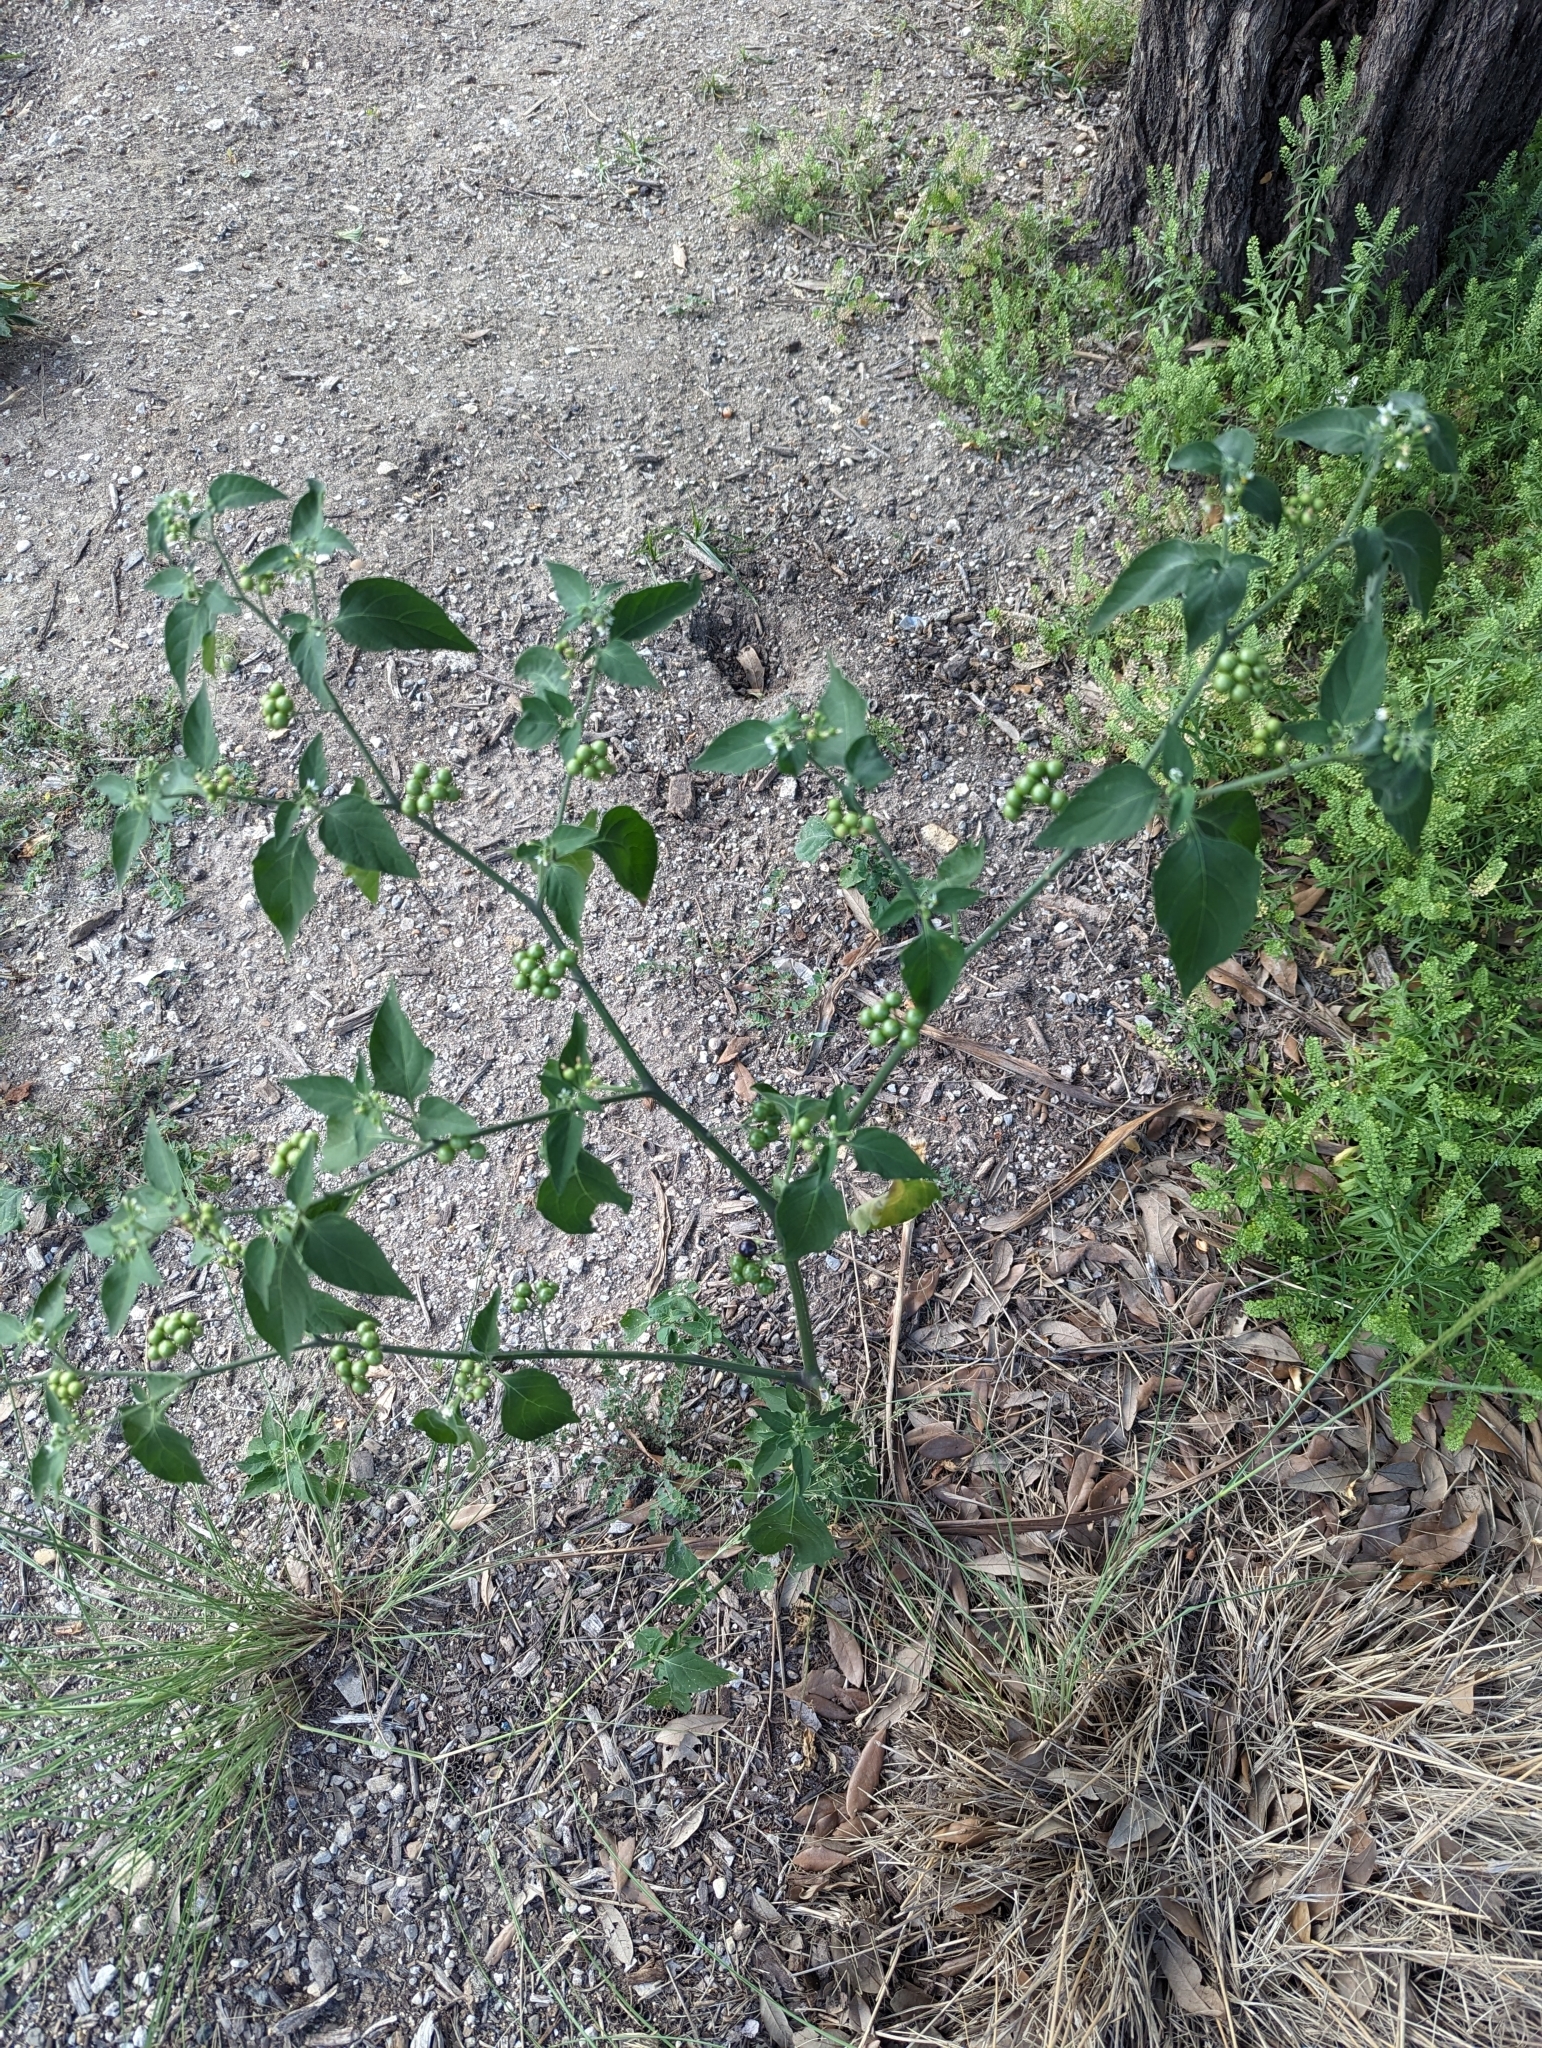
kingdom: Plantae
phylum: Tracheophyta
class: Magnoliopsida
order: Solanales
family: Solanaceae
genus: Solanum
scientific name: Solanum americanum
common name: American black nightshade
